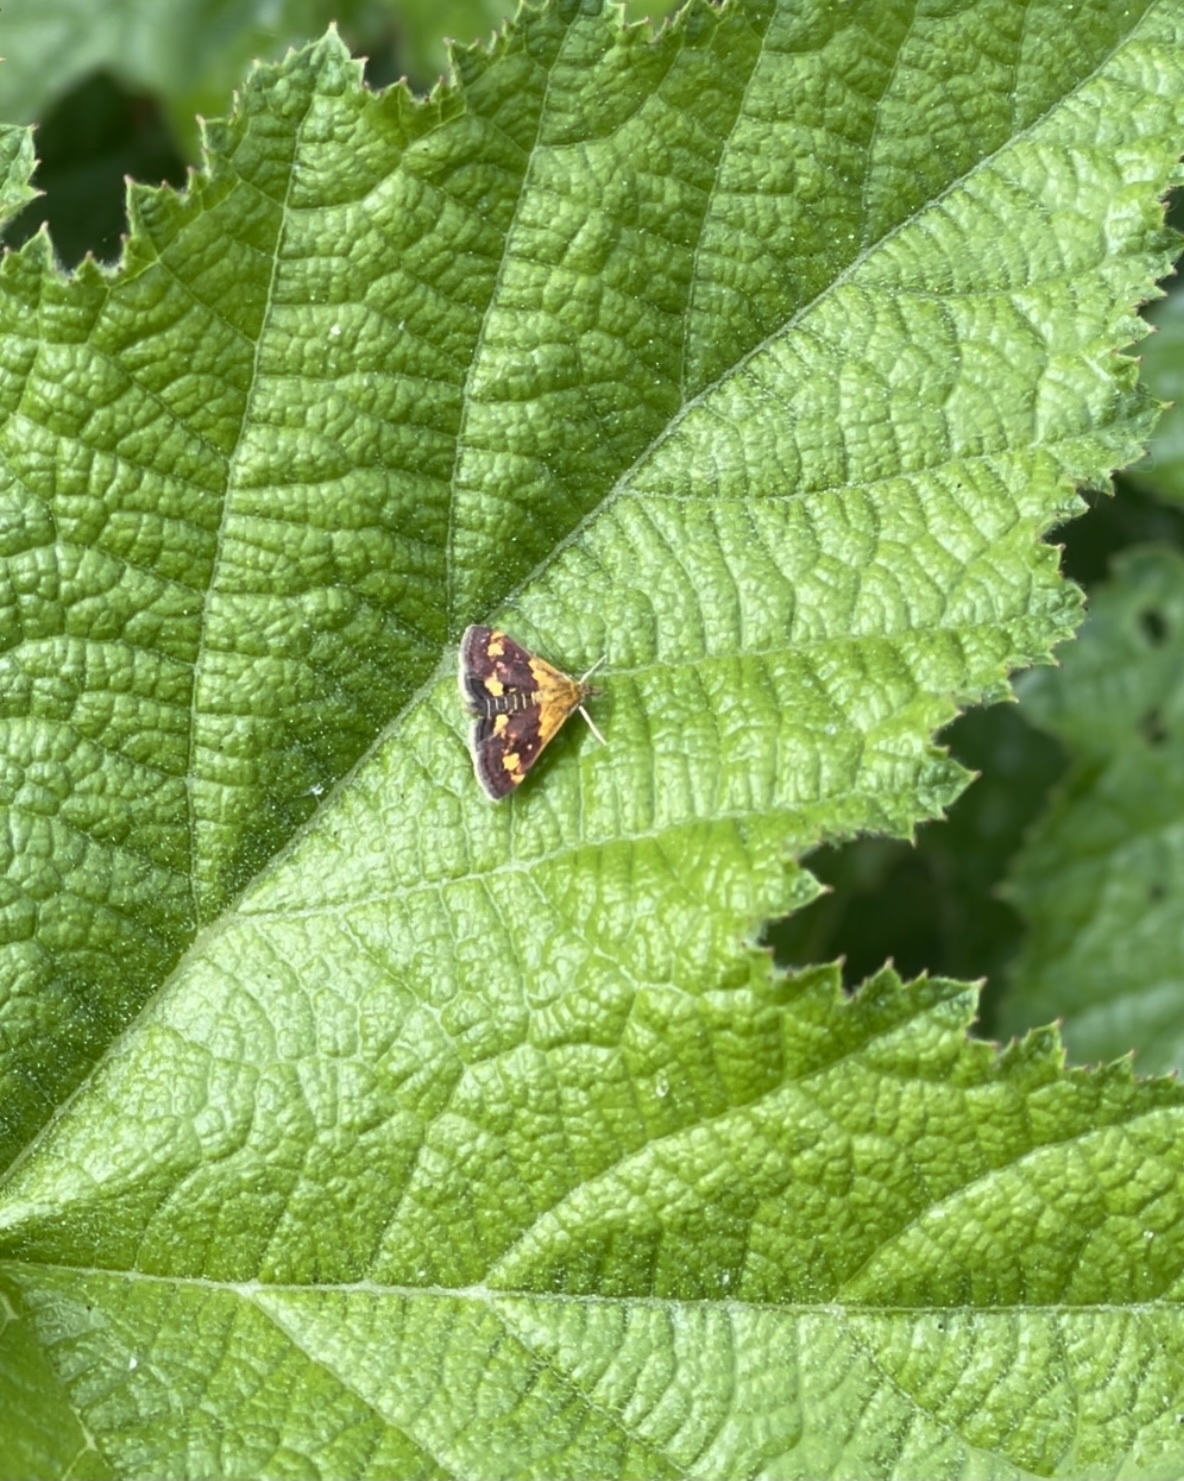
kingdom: Animalia
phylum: Arthropoda
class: Insecta
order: Lepidoptera
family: Crambidae
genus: Pyrausta
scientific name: Pyrausta orphisalis
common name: Orange mint moth
